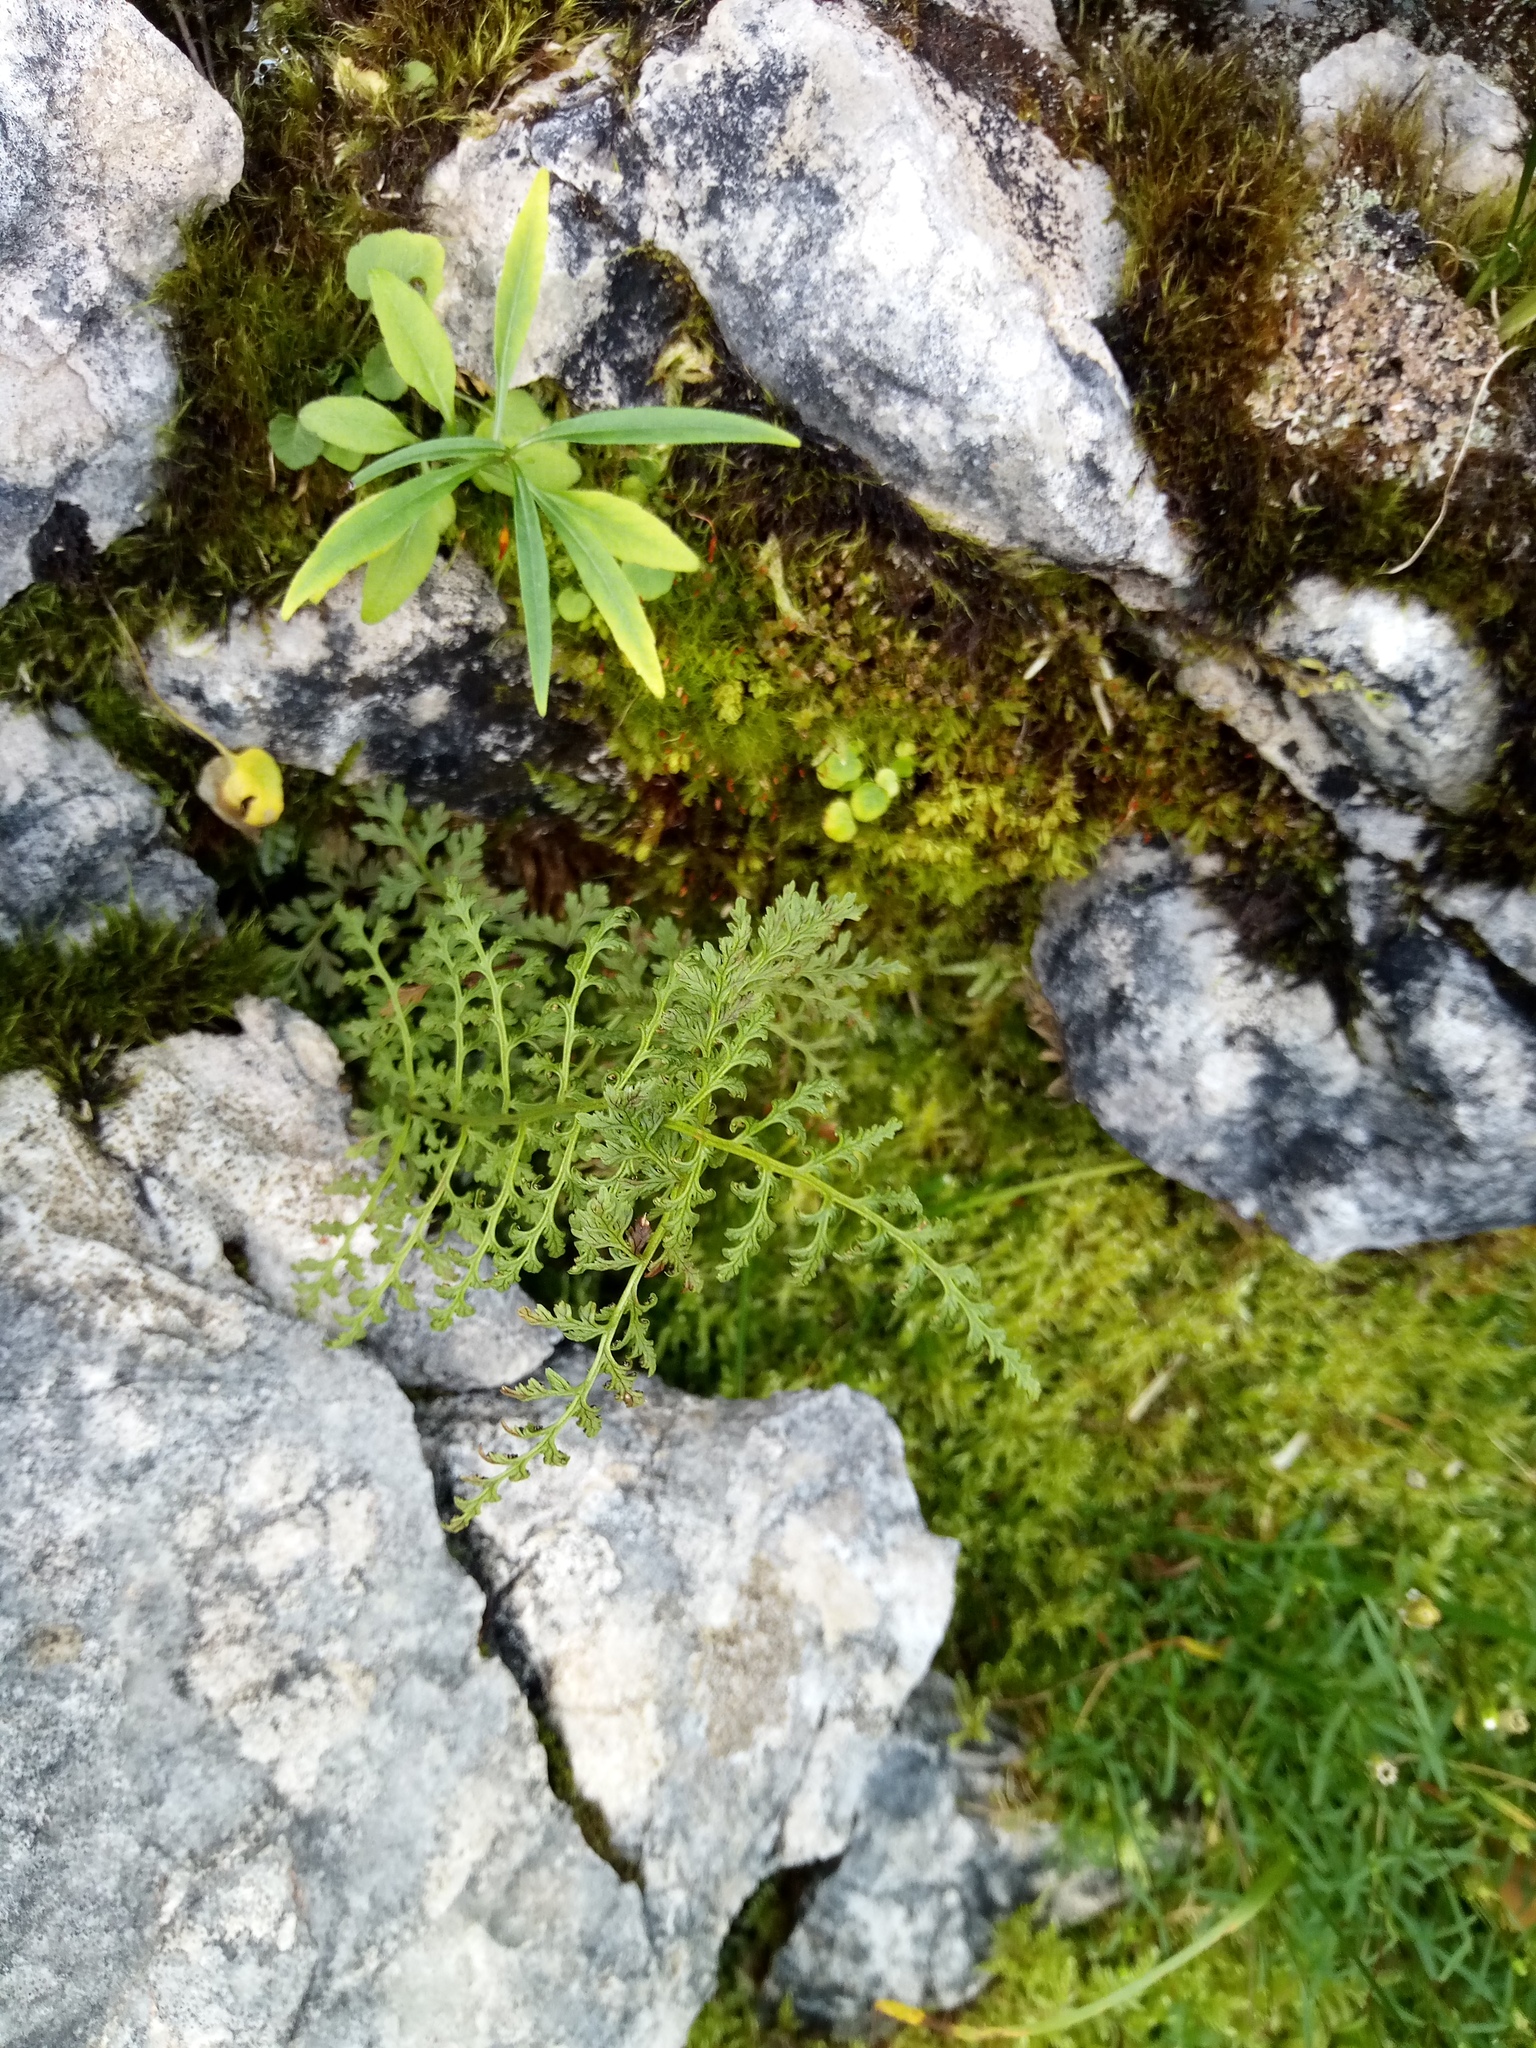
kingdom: Plantae
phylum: Tracheophyta
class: Polypodiopsida
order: Polypodiales
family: Cystopteridaceae
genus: Cystopteris
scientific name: Cystopteris alpina
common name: Alpine bladder-fern
